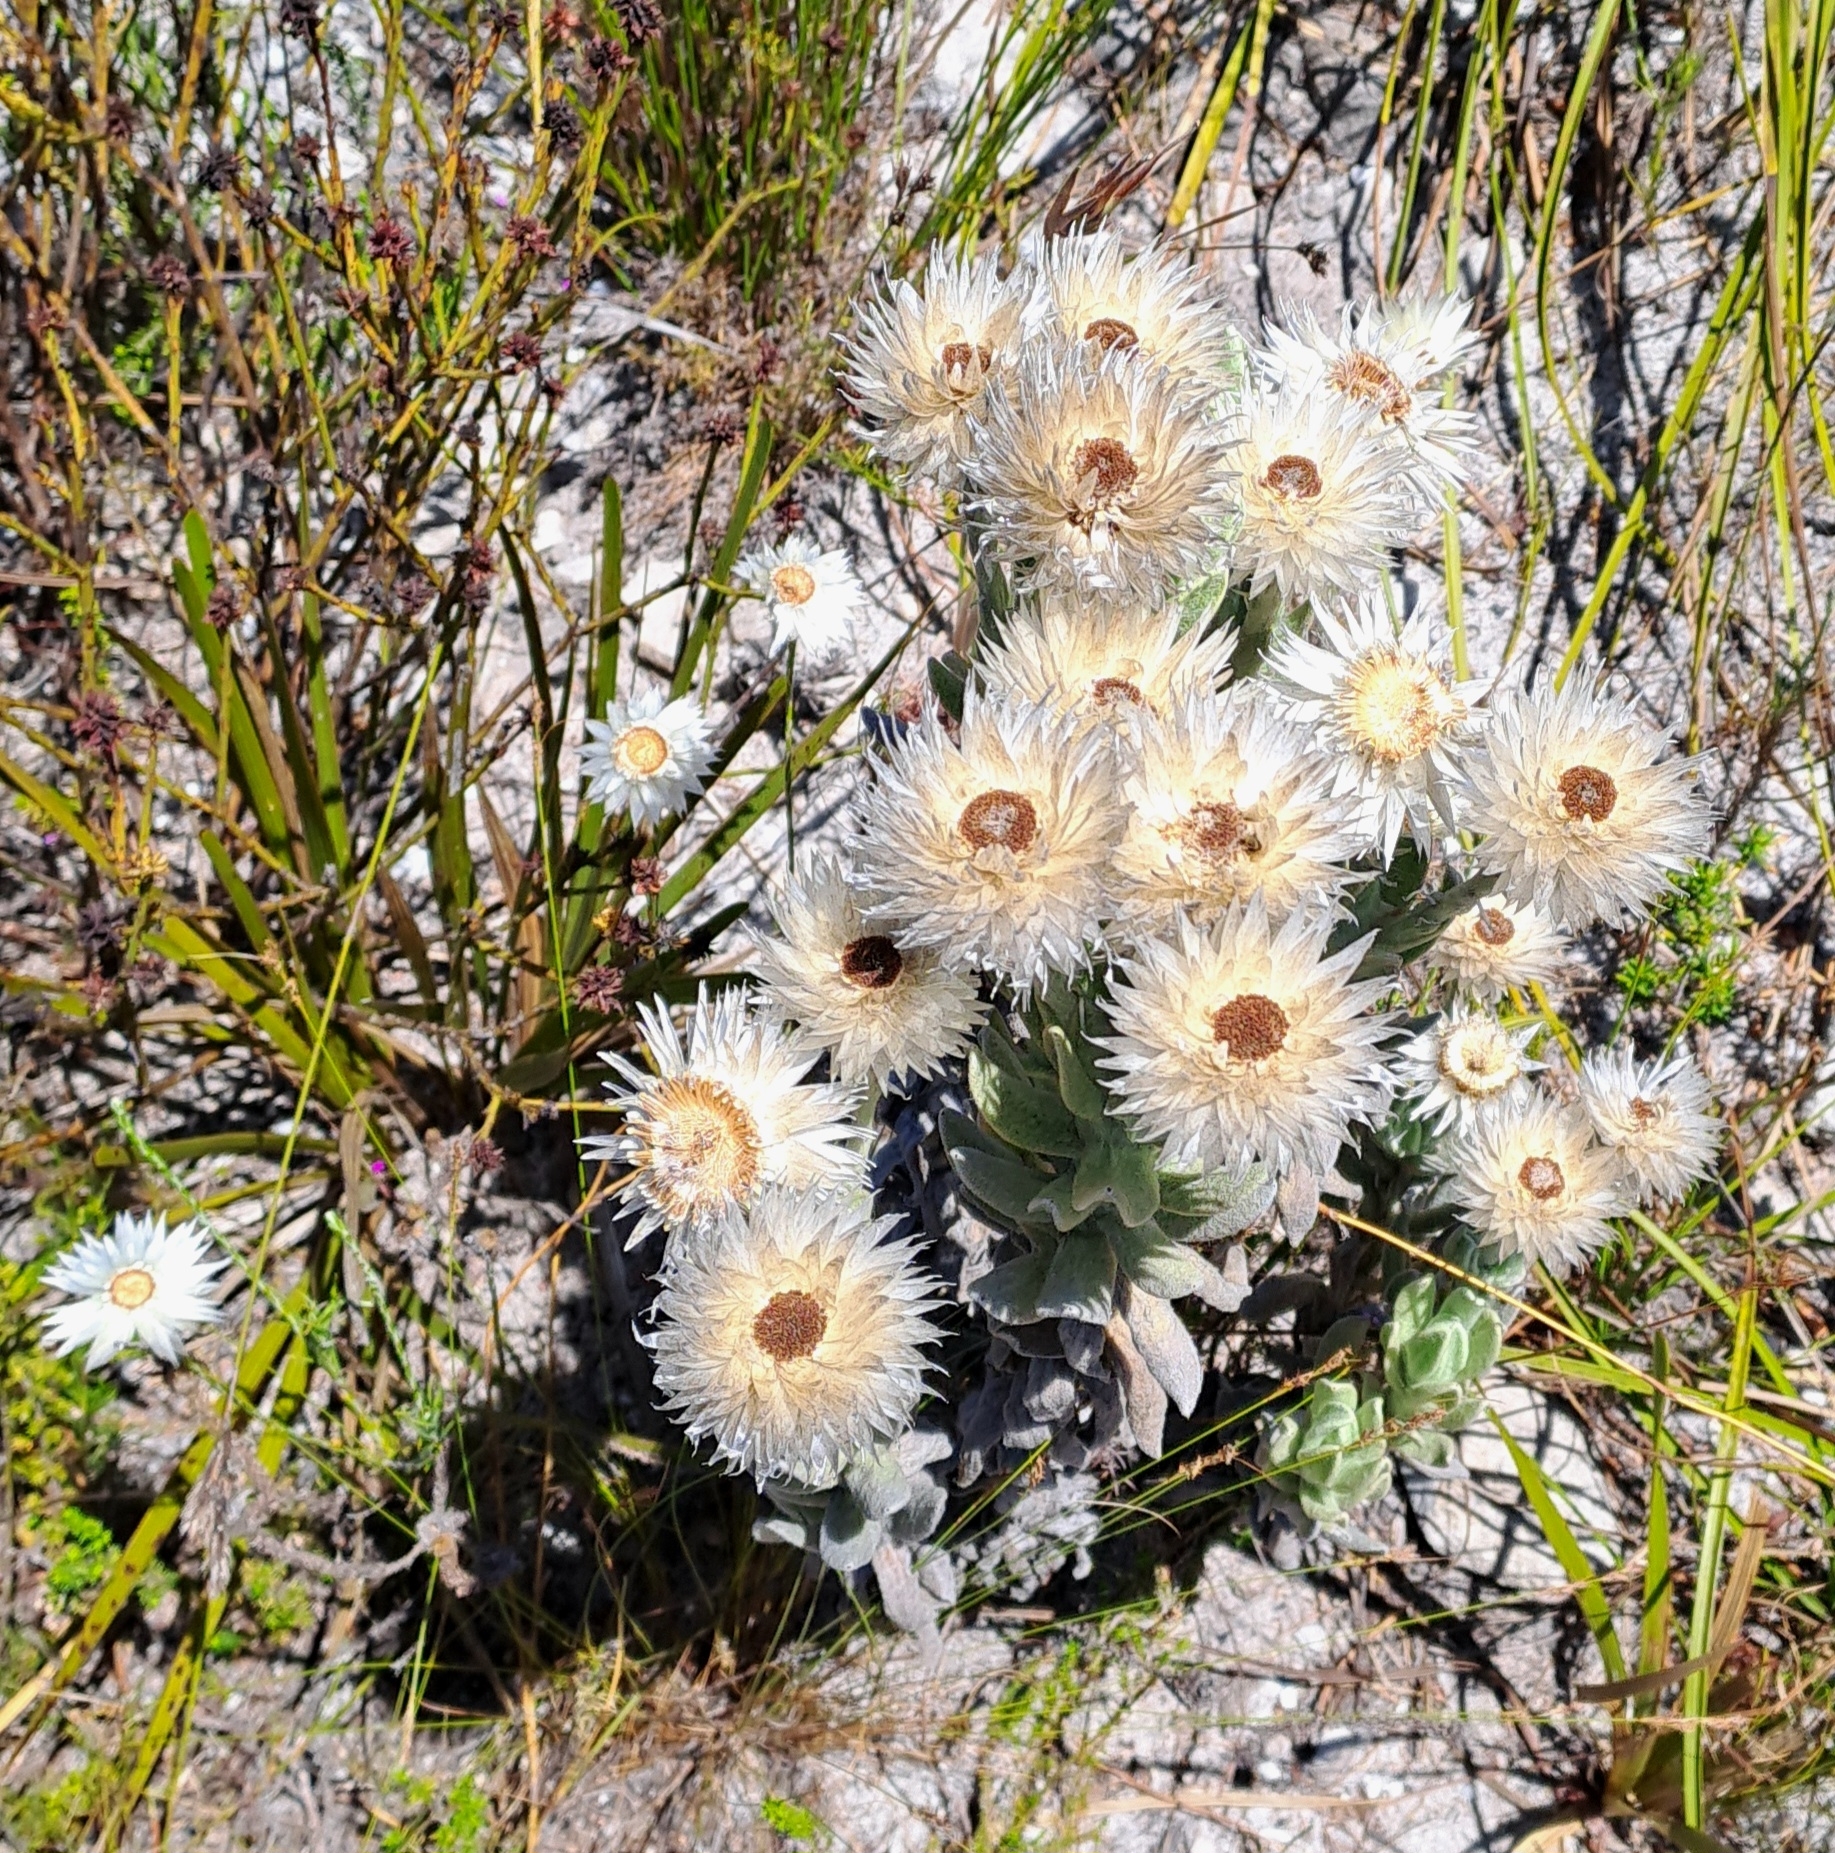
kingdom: Plantae
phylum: Tracheophyta
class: Magnoliopsida
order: Asterales
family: Asteraceae
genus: Syncarpha
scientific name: Syncarpha vestita
